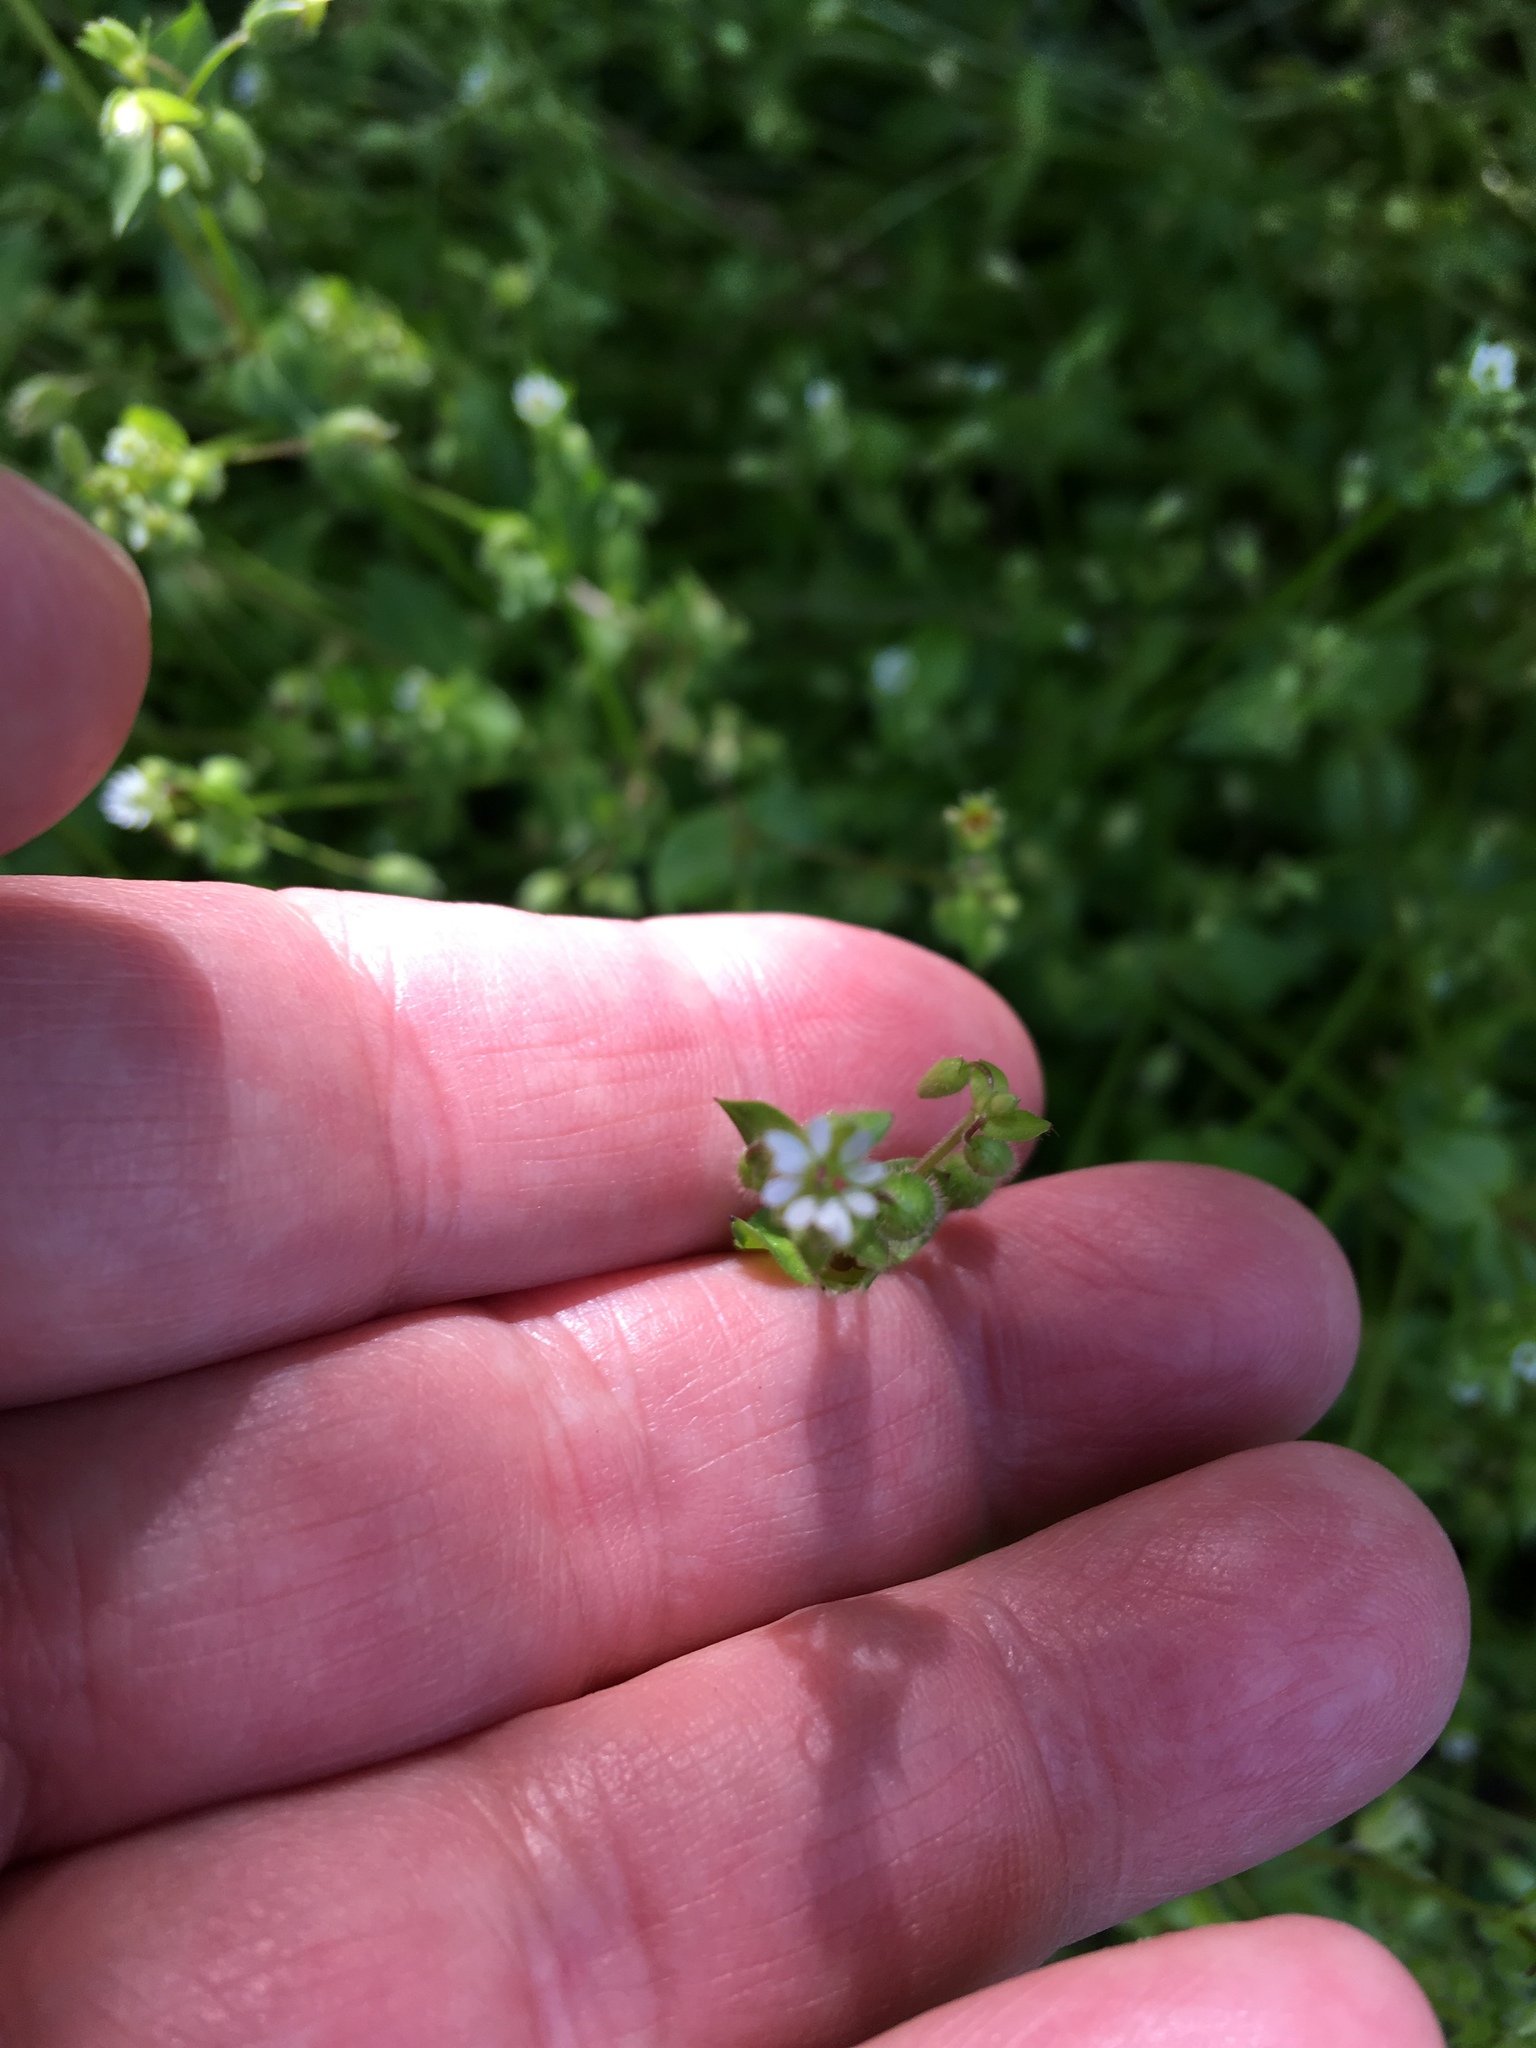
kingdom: Plantae
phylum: Tracheophyta
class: Magnoliopsida
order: Caryophyllales
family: Caryophyllaceae
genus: Stellaria
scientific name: Stellaria media
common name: Common chickweed
